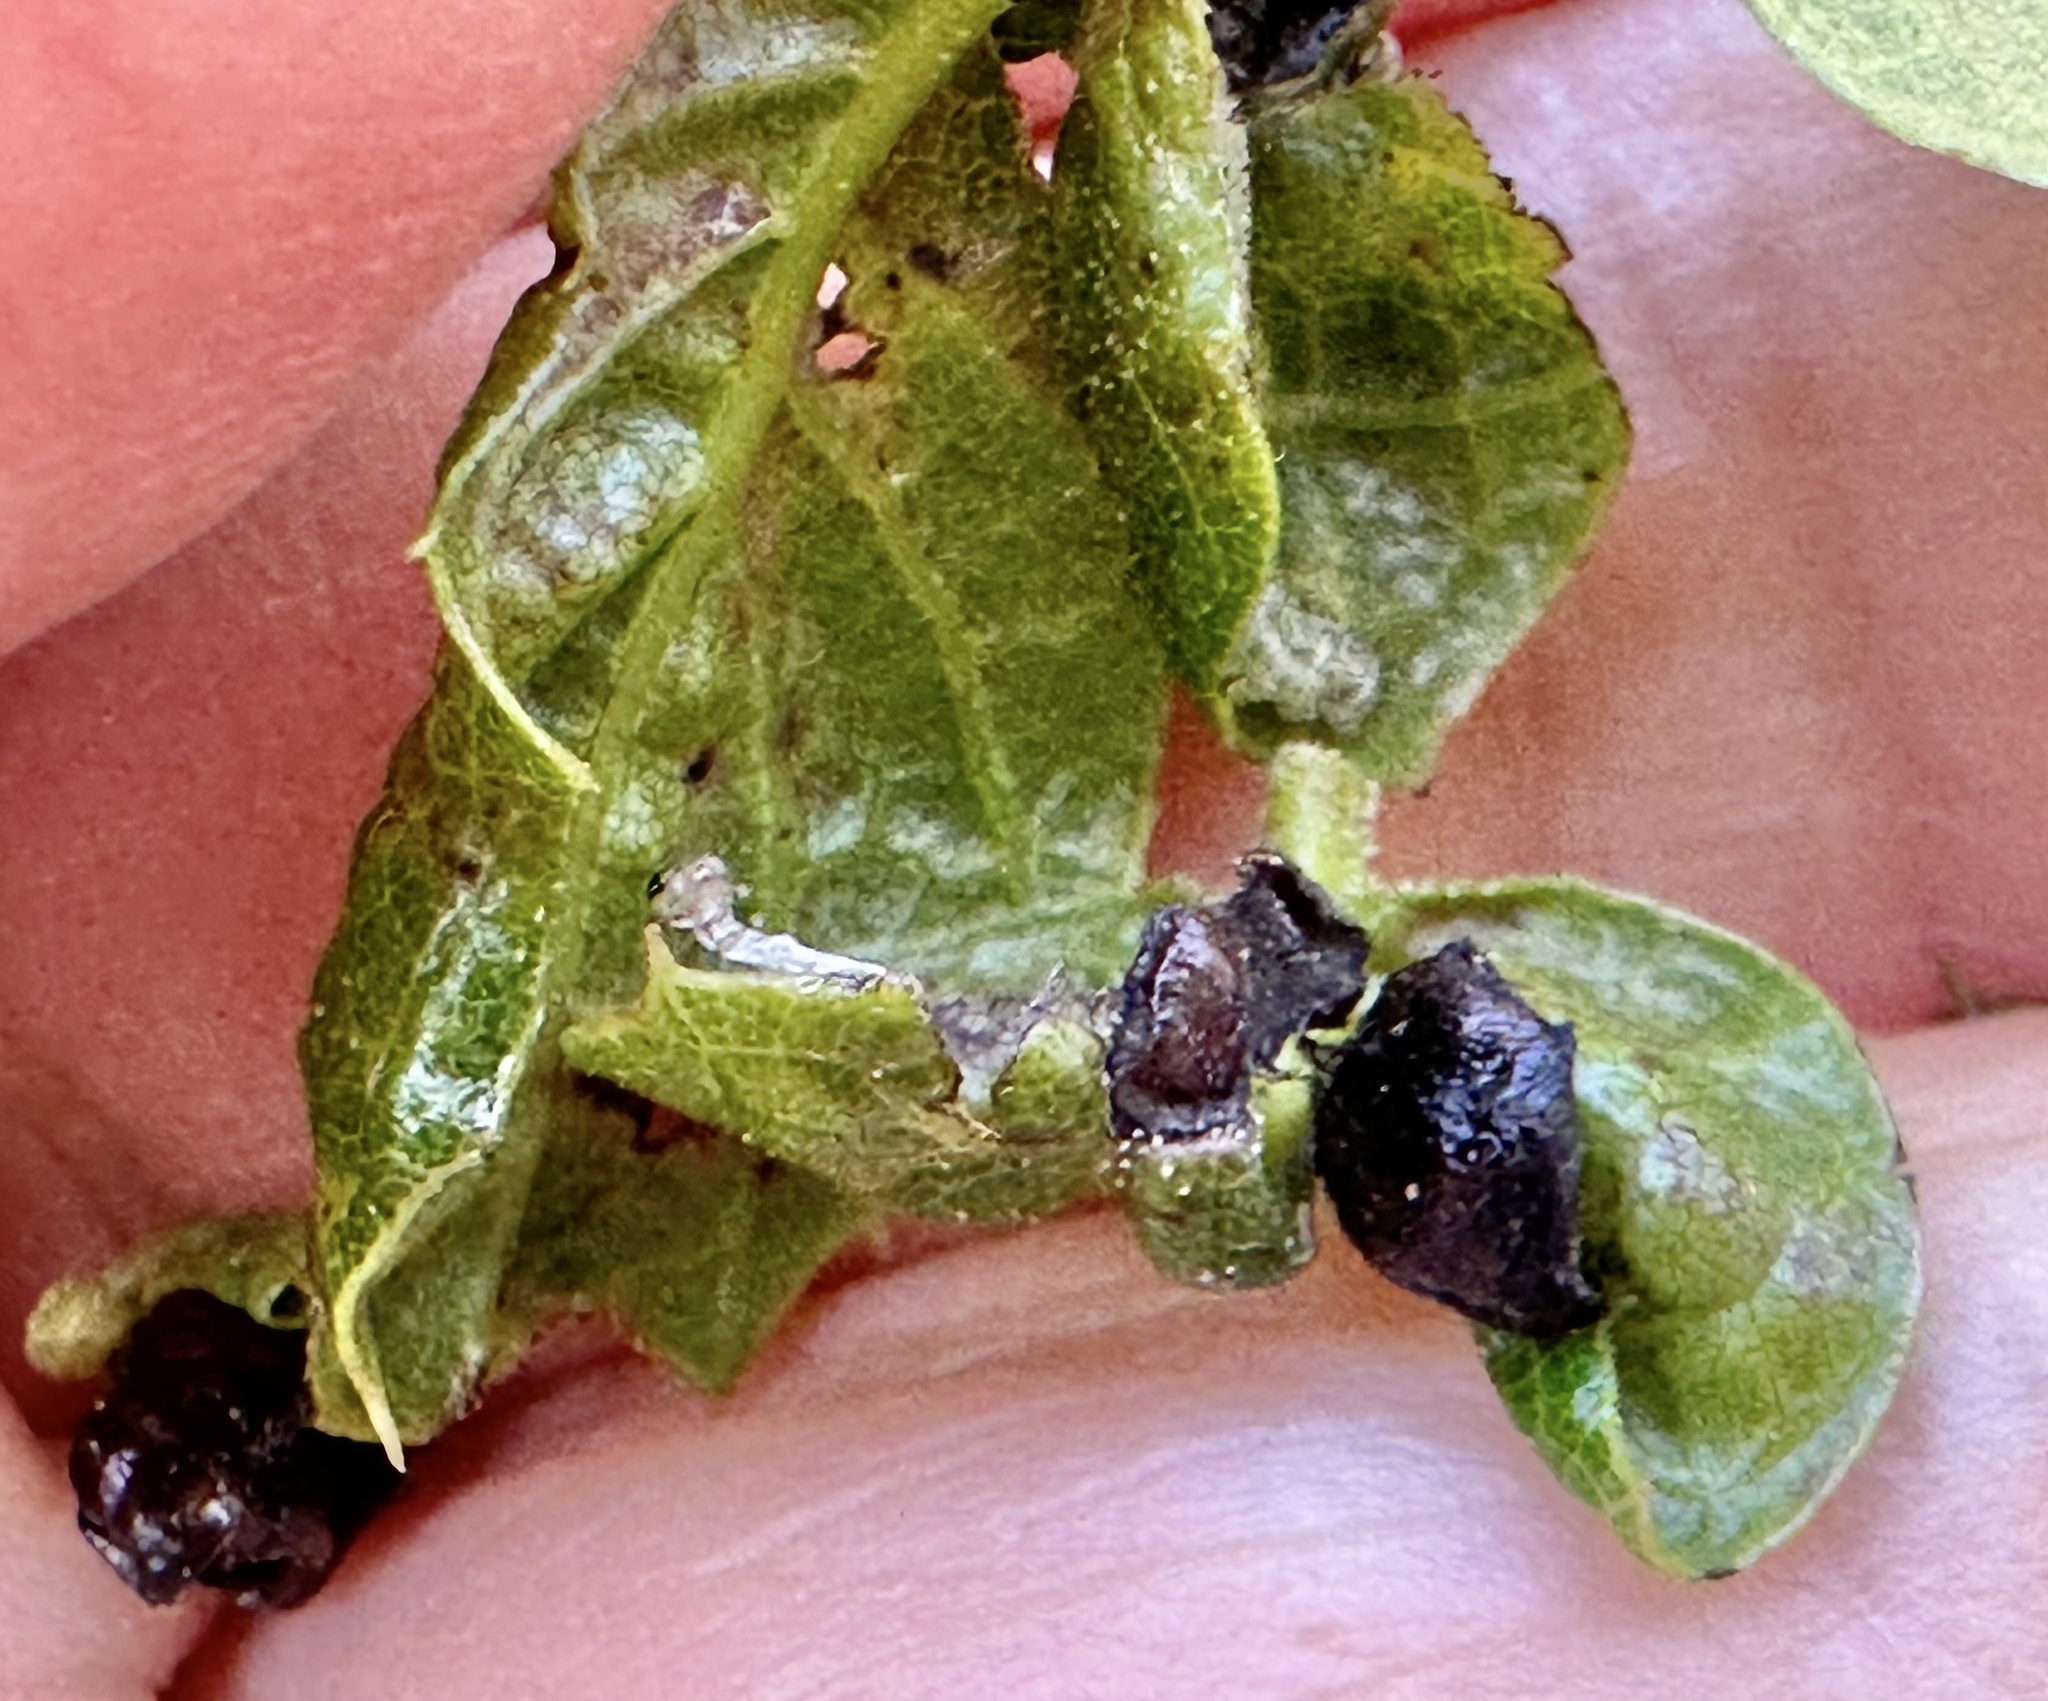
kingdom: Animalia
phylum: Arthropoda
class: Insecta
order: Hymenoptera
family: Cynipidae
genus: Dryocosmus
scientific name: Dryocosmus
